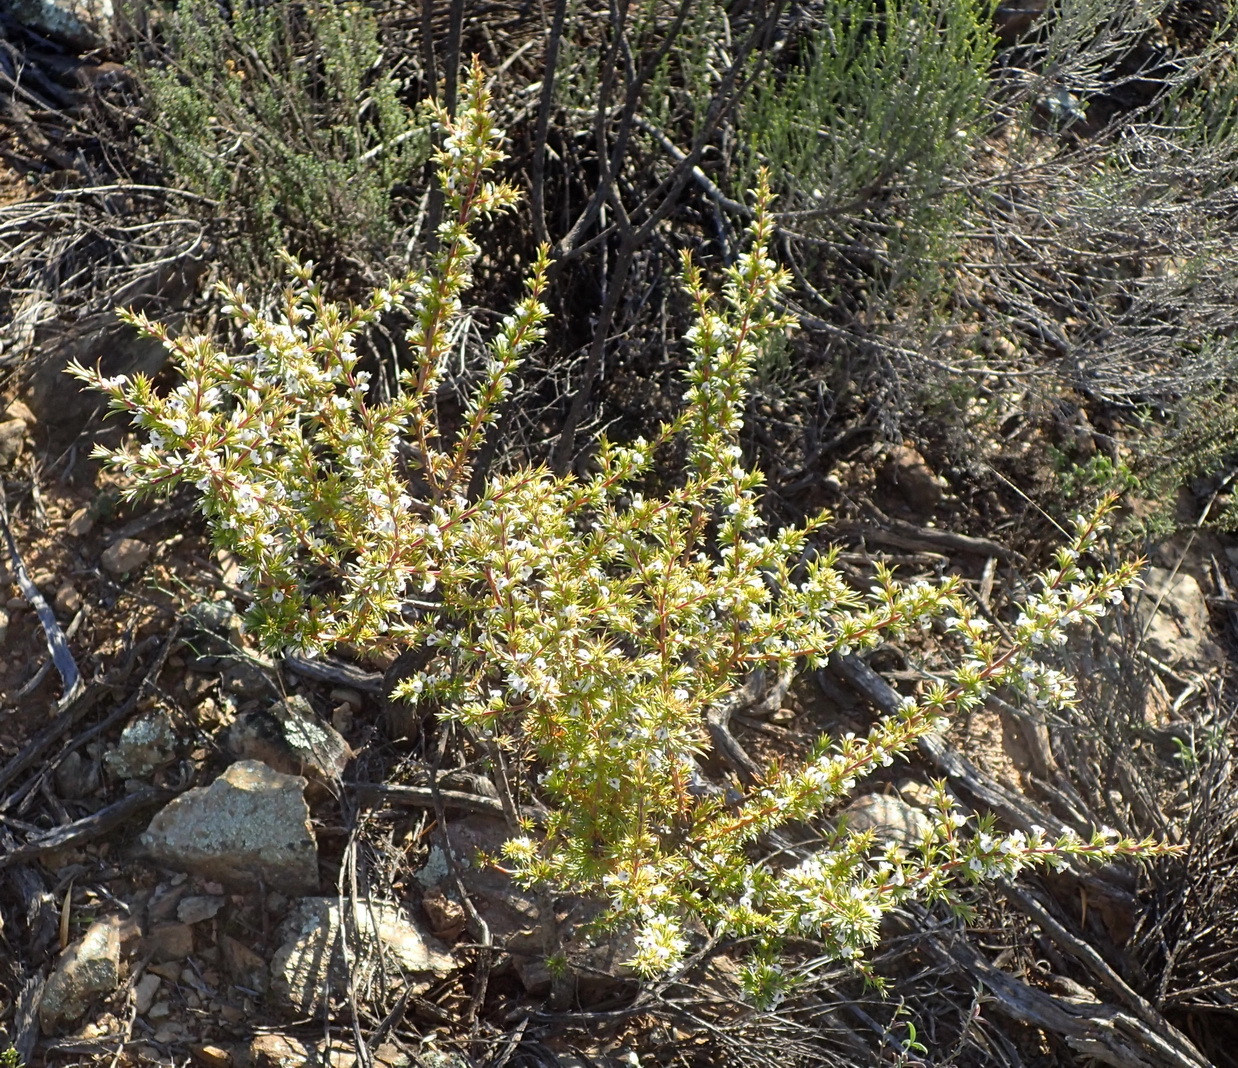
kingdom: Plantae
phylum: Tracheophyta
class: Magnoliopsida
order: Fabales
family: Polygalaceae
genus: Muraltia
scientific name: Muraltia ericifolia
